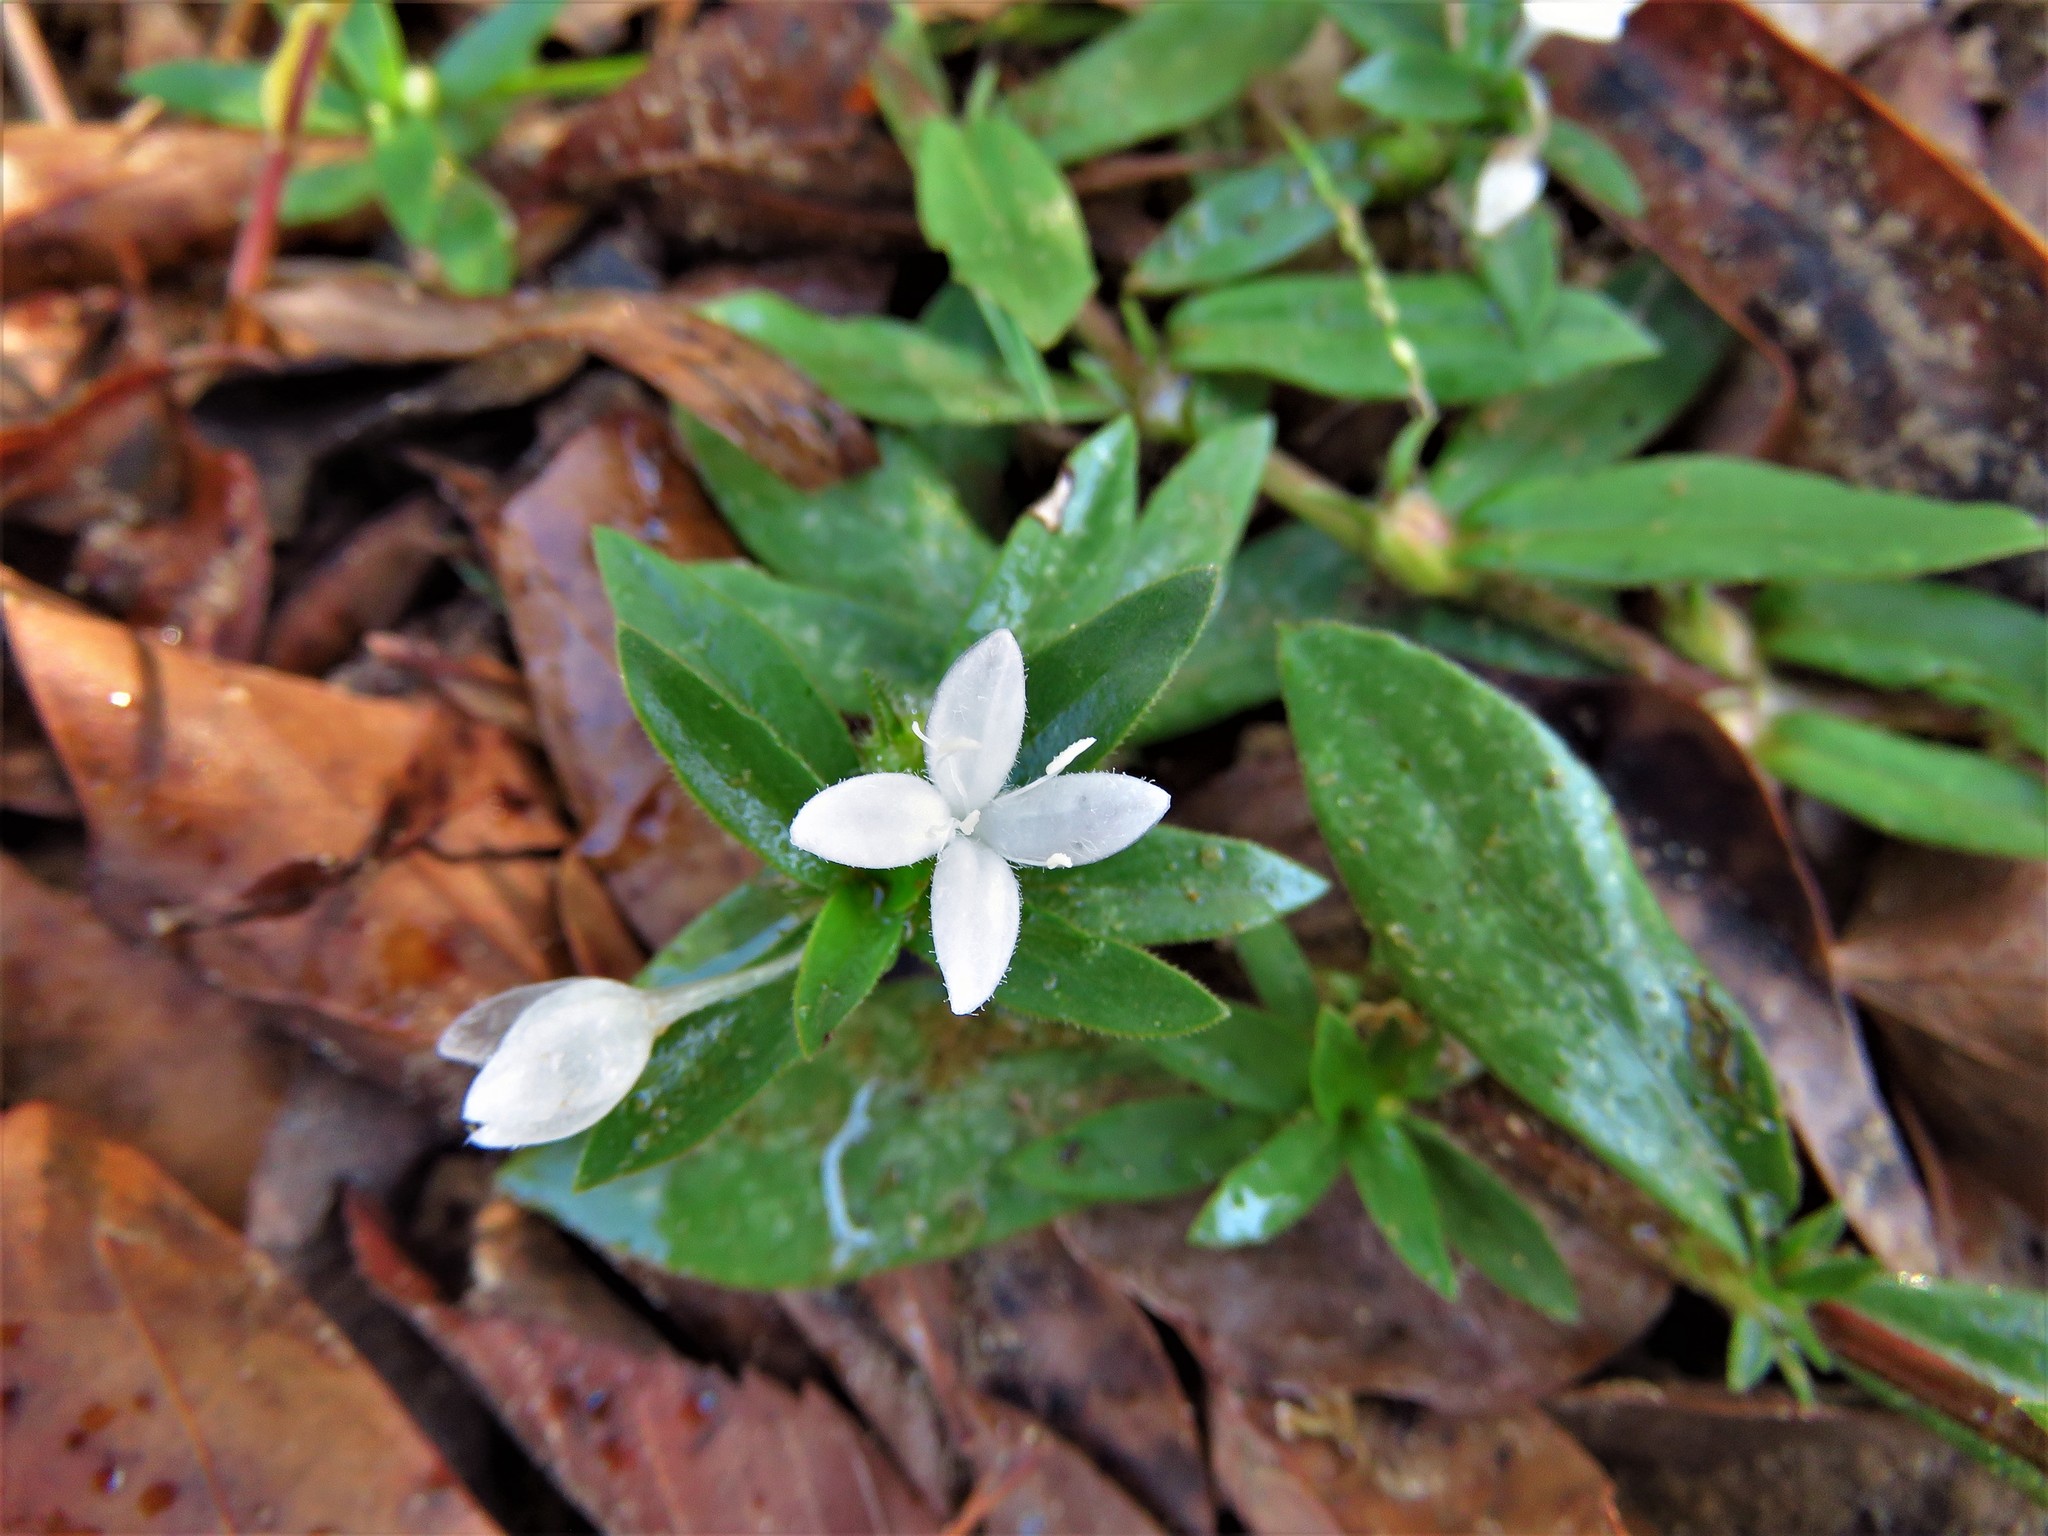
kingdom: Plantae
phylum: Tracheophyta
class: Magnoliopsida
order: Gentianales
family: Rubiaceae
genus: Diodia
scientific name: Diodia virginiana
